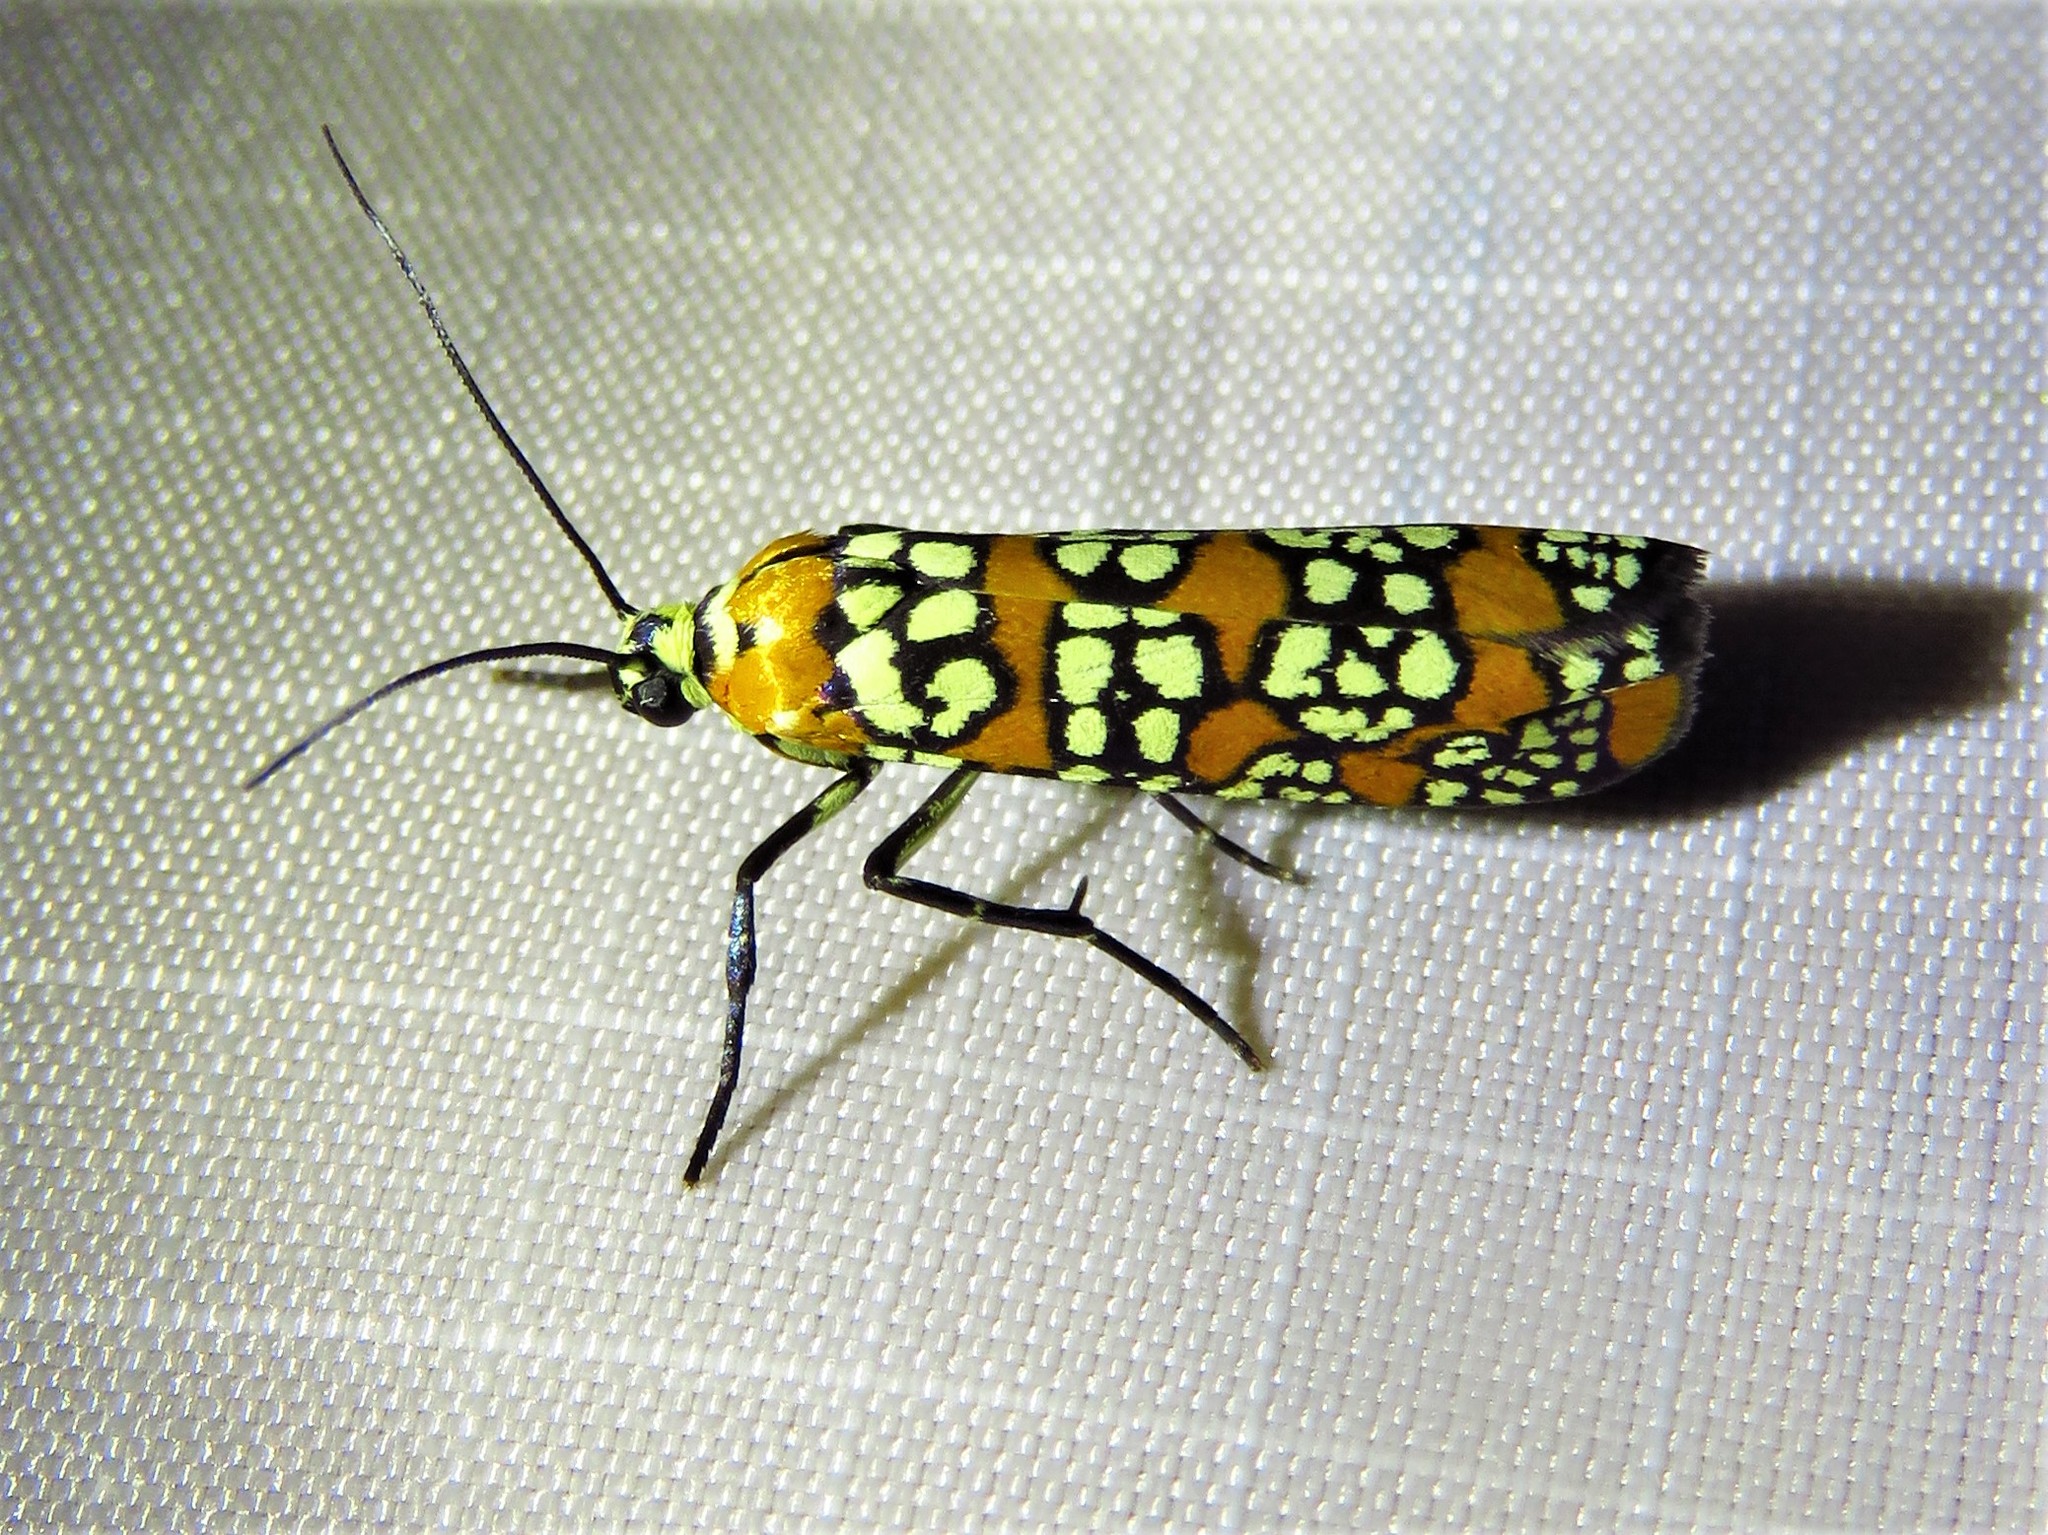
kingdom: Animalia
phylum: Arthropoda
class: Insecta
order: Lepidoptera
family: Attevidae
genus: Atteva
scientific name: Atteva punctella
